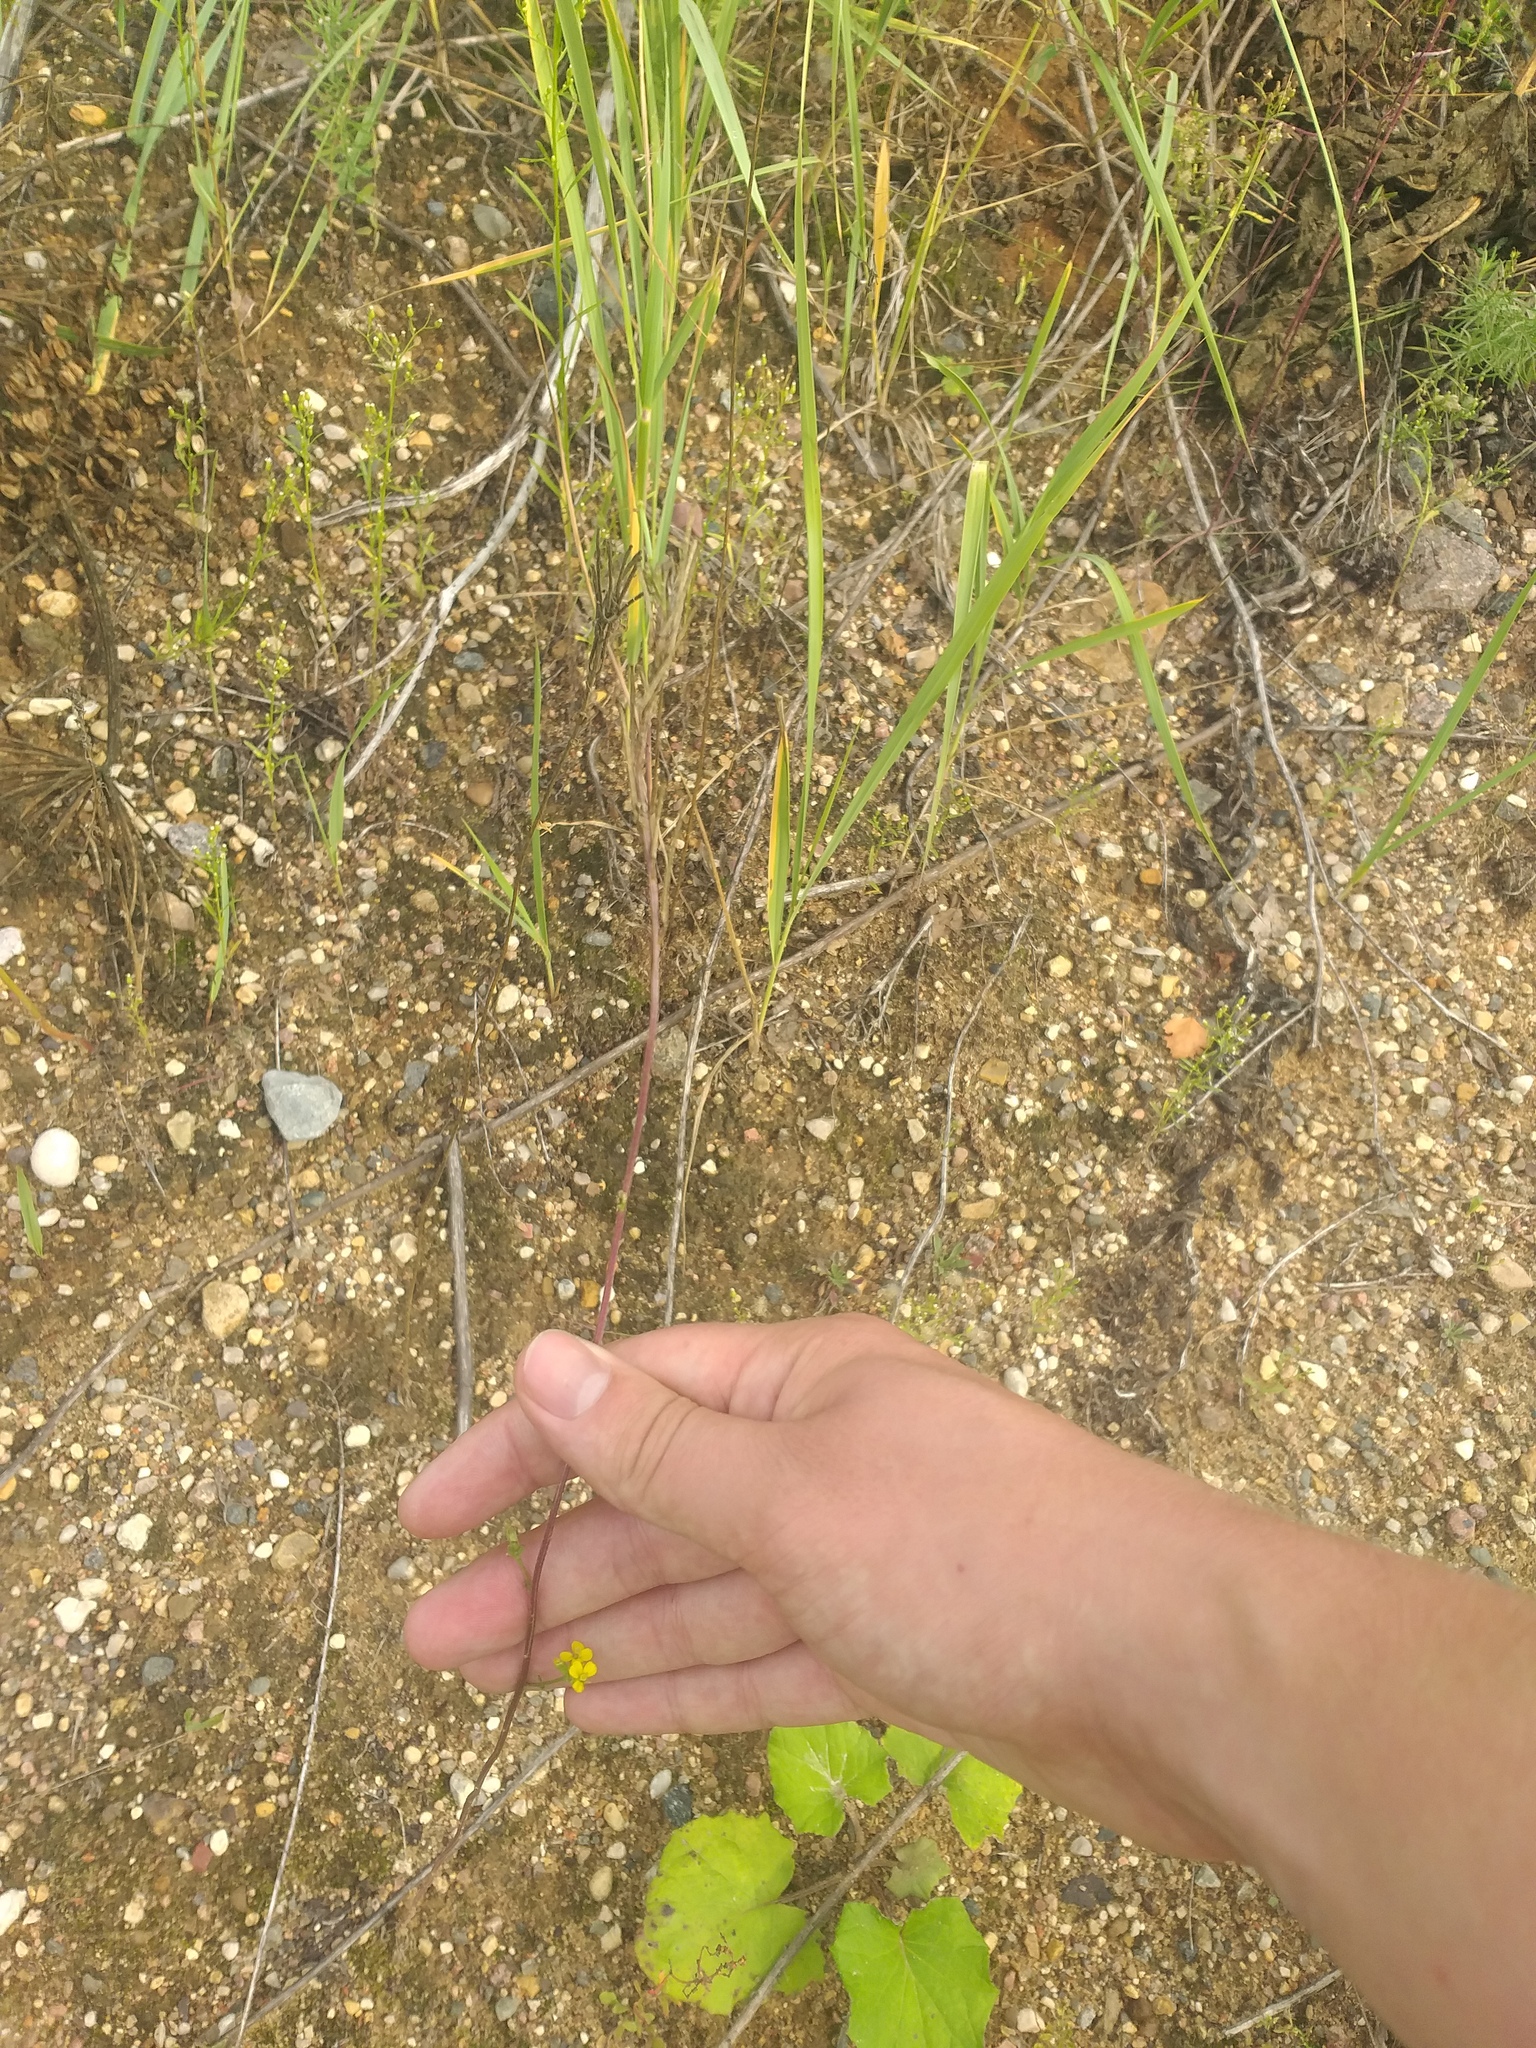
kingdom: Plantae
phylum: Tracheophyta
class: Magnoliopsida
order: Brassicales
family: Brassicaceae
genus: Erysimum
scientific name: Erysimum hieraciifolium
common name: European wallflower
